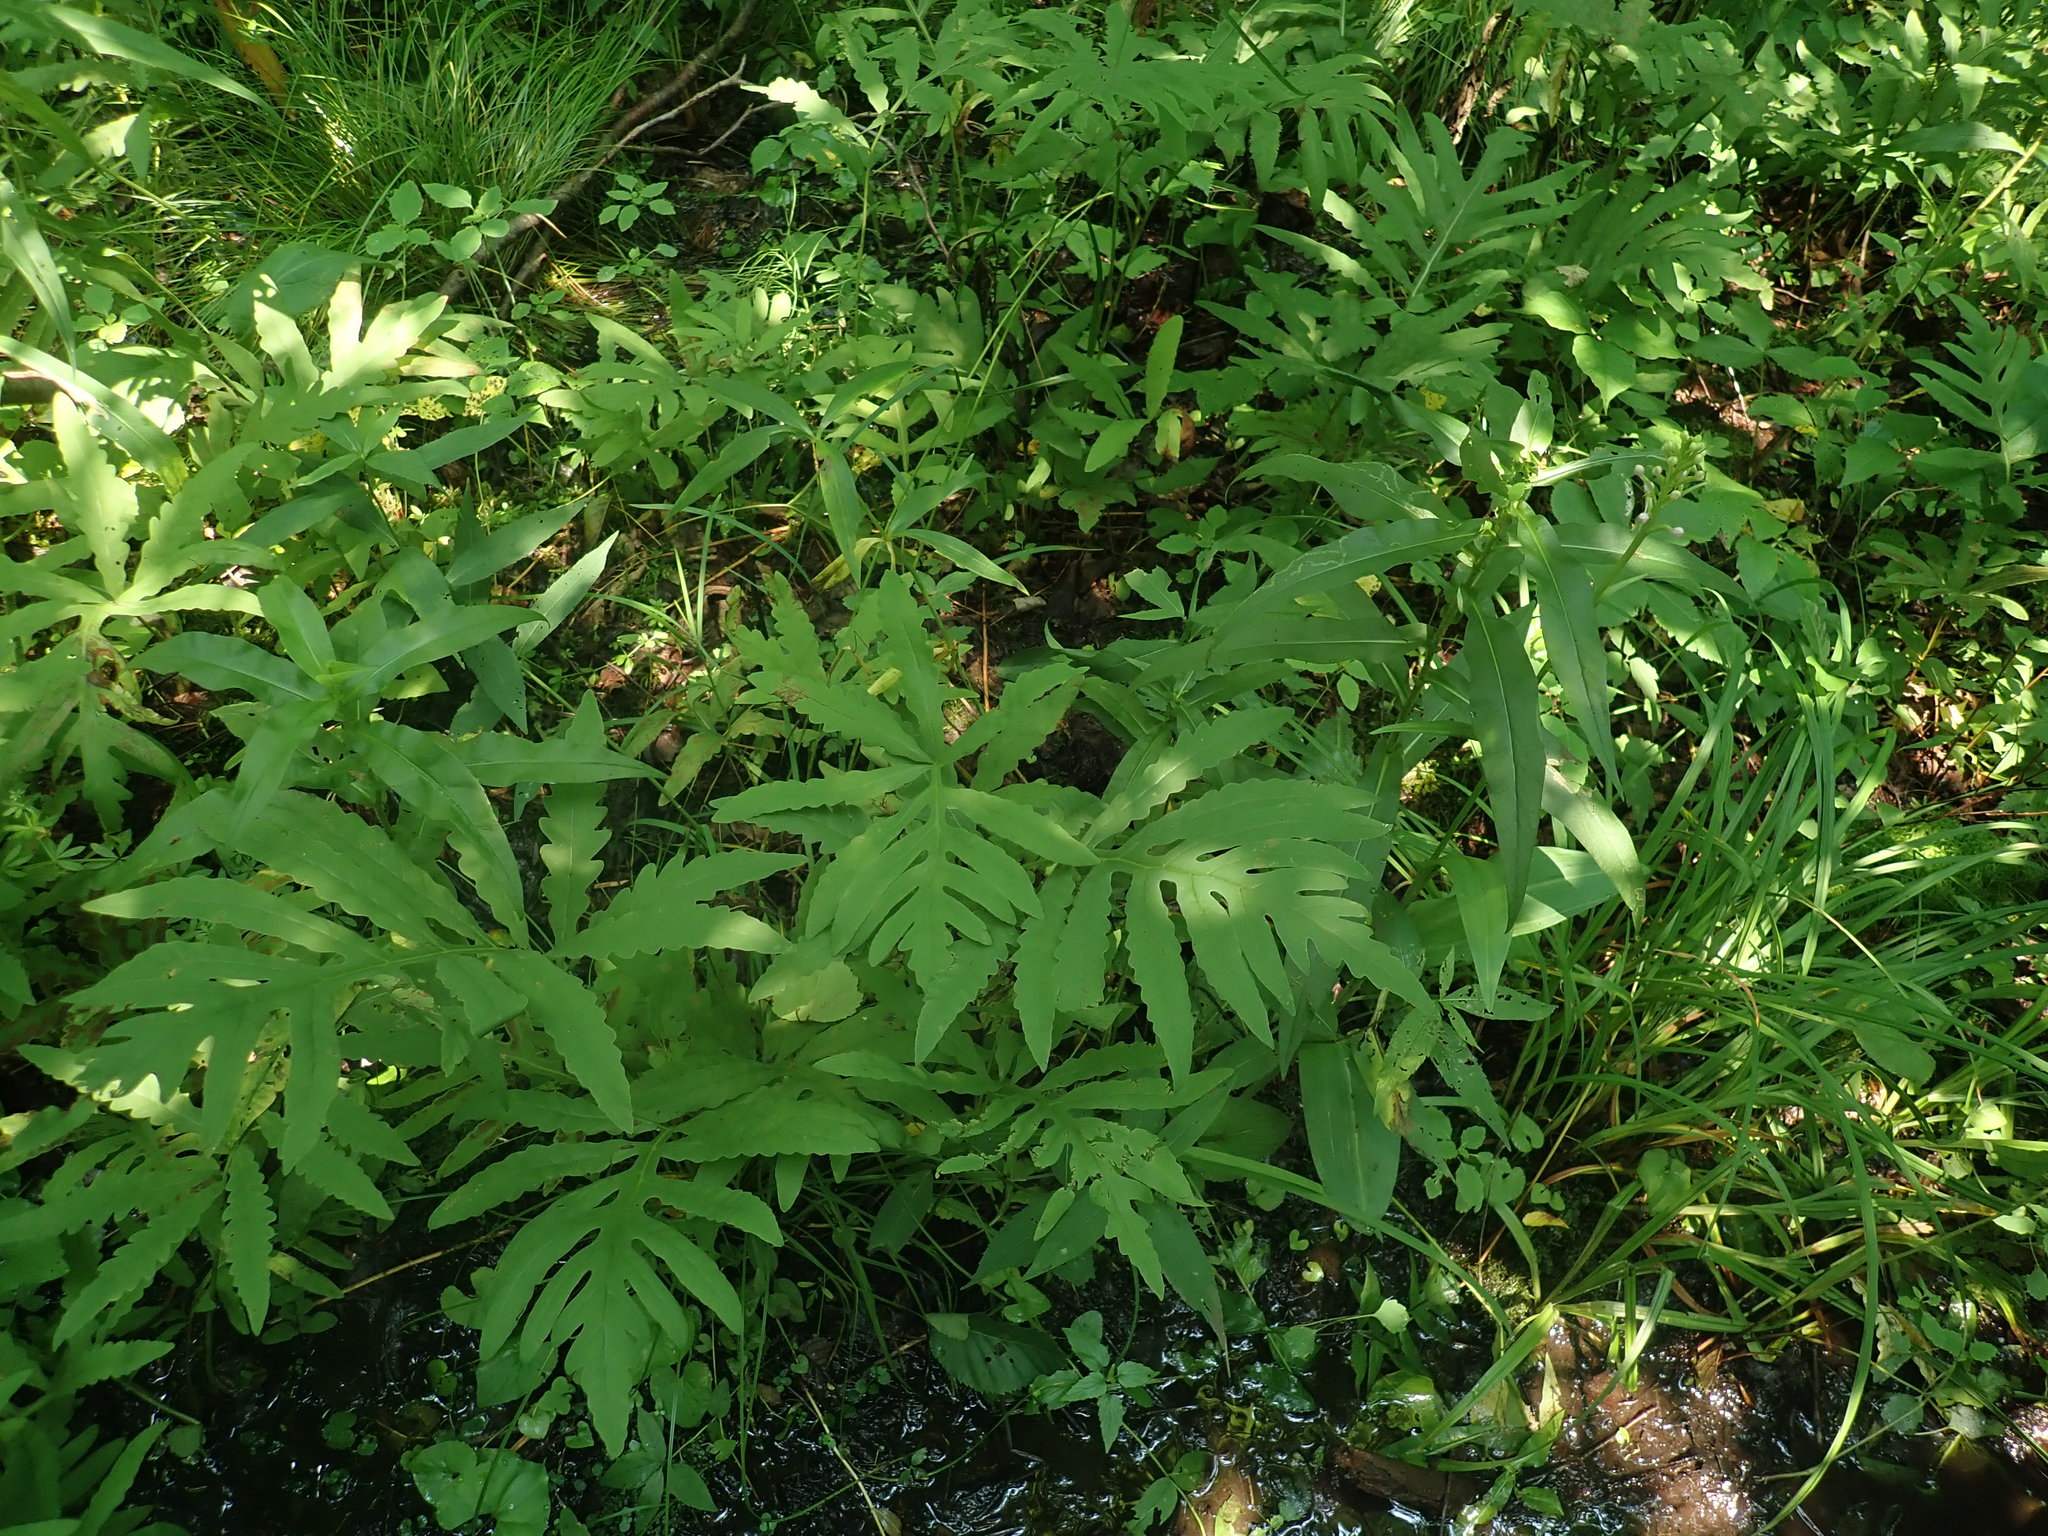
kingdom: Plantae
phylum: Tracheophyta
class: Polypodiopsida
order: Polypodiales
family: Onocleaceae
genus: Onoclea
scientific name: Onoclea sensibilis
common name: Sensitive fern
